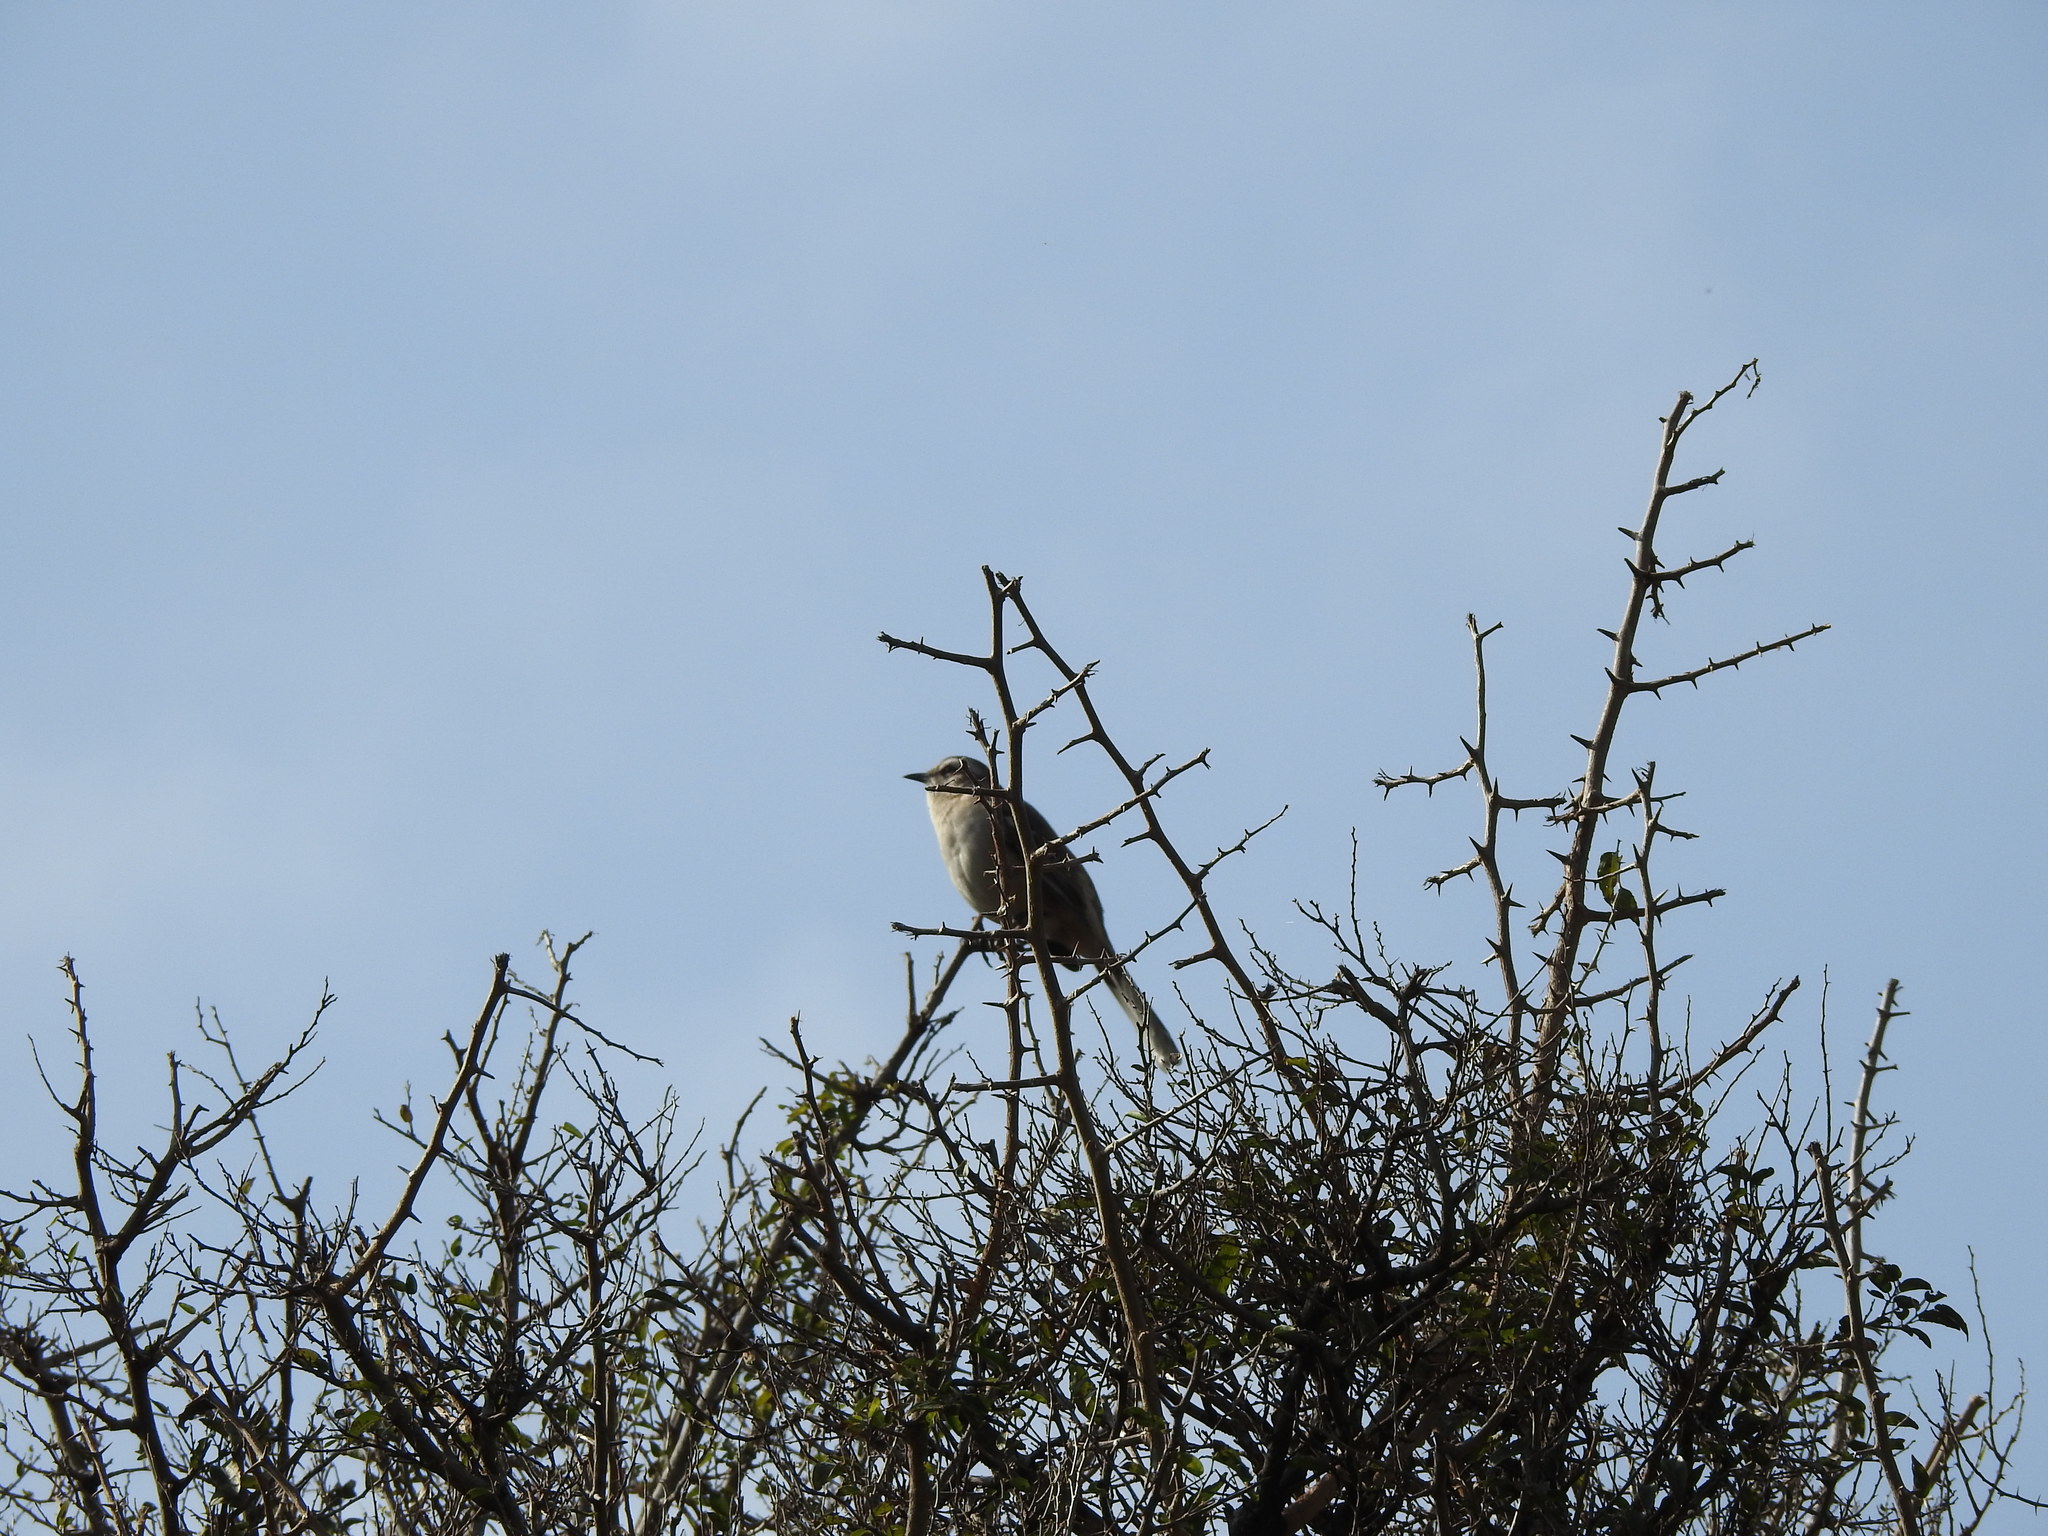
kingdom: Animalia
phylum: Chordata
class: Aves
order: Passeriformes
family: Mimidae
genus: Mimus
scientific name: Mimus saturninus
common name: Chalk-browed mockingbird
